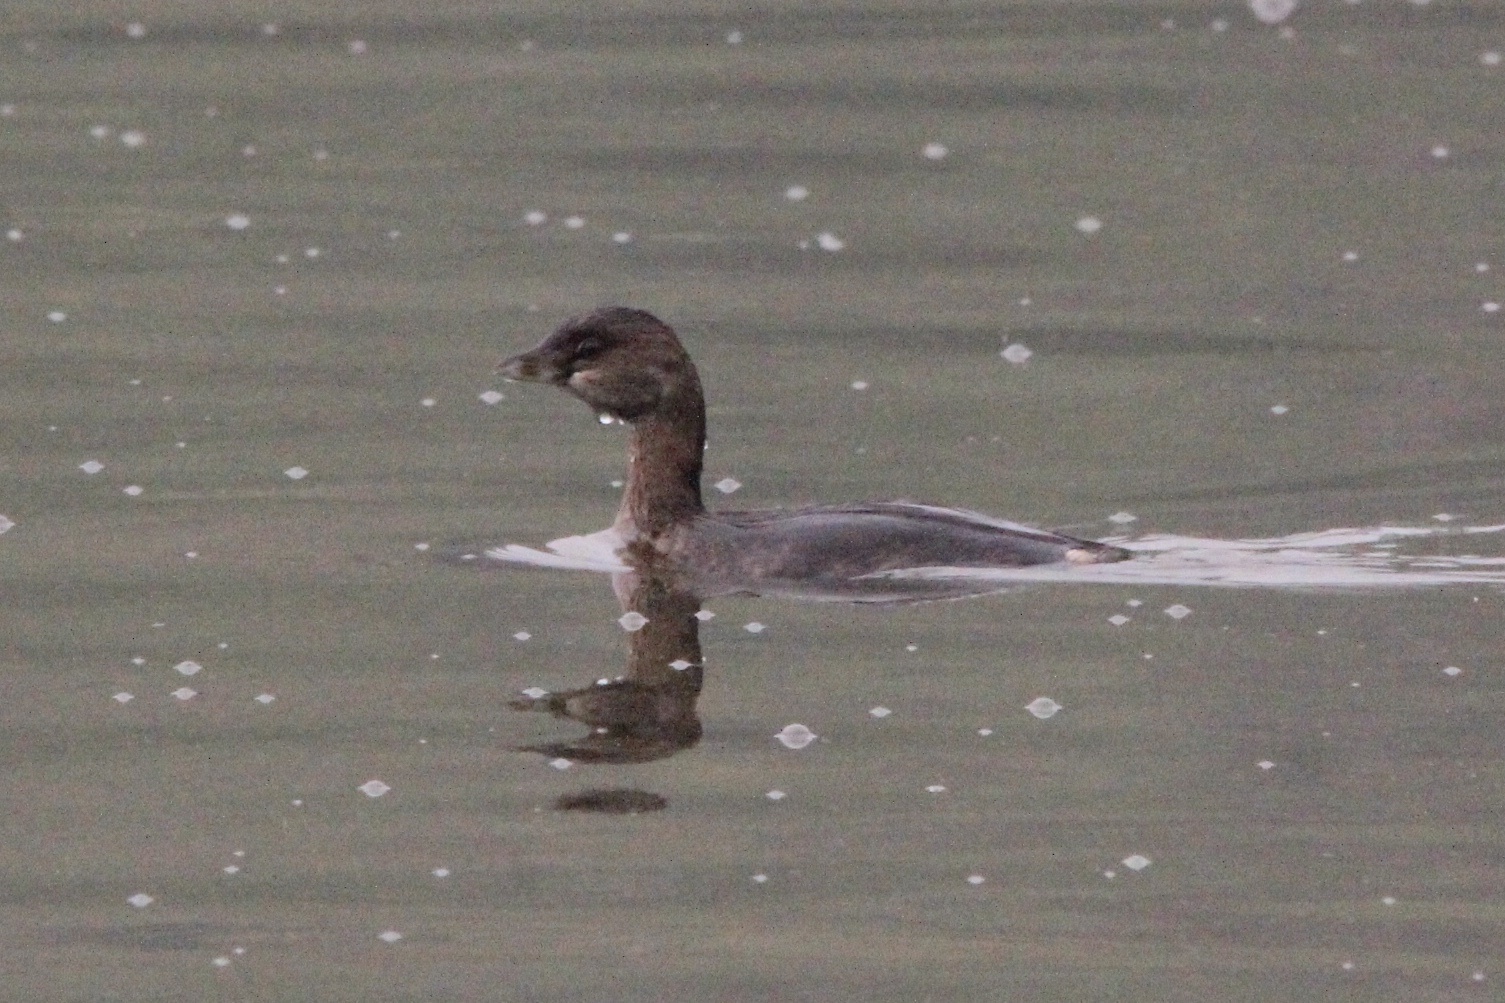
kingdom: Animalia
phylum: Chordata
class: Aves
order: Podicipediformes
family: Podicipedidae
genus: Podilymbus
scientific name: Podilymbus podiceps
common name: Pied-billed grebe
